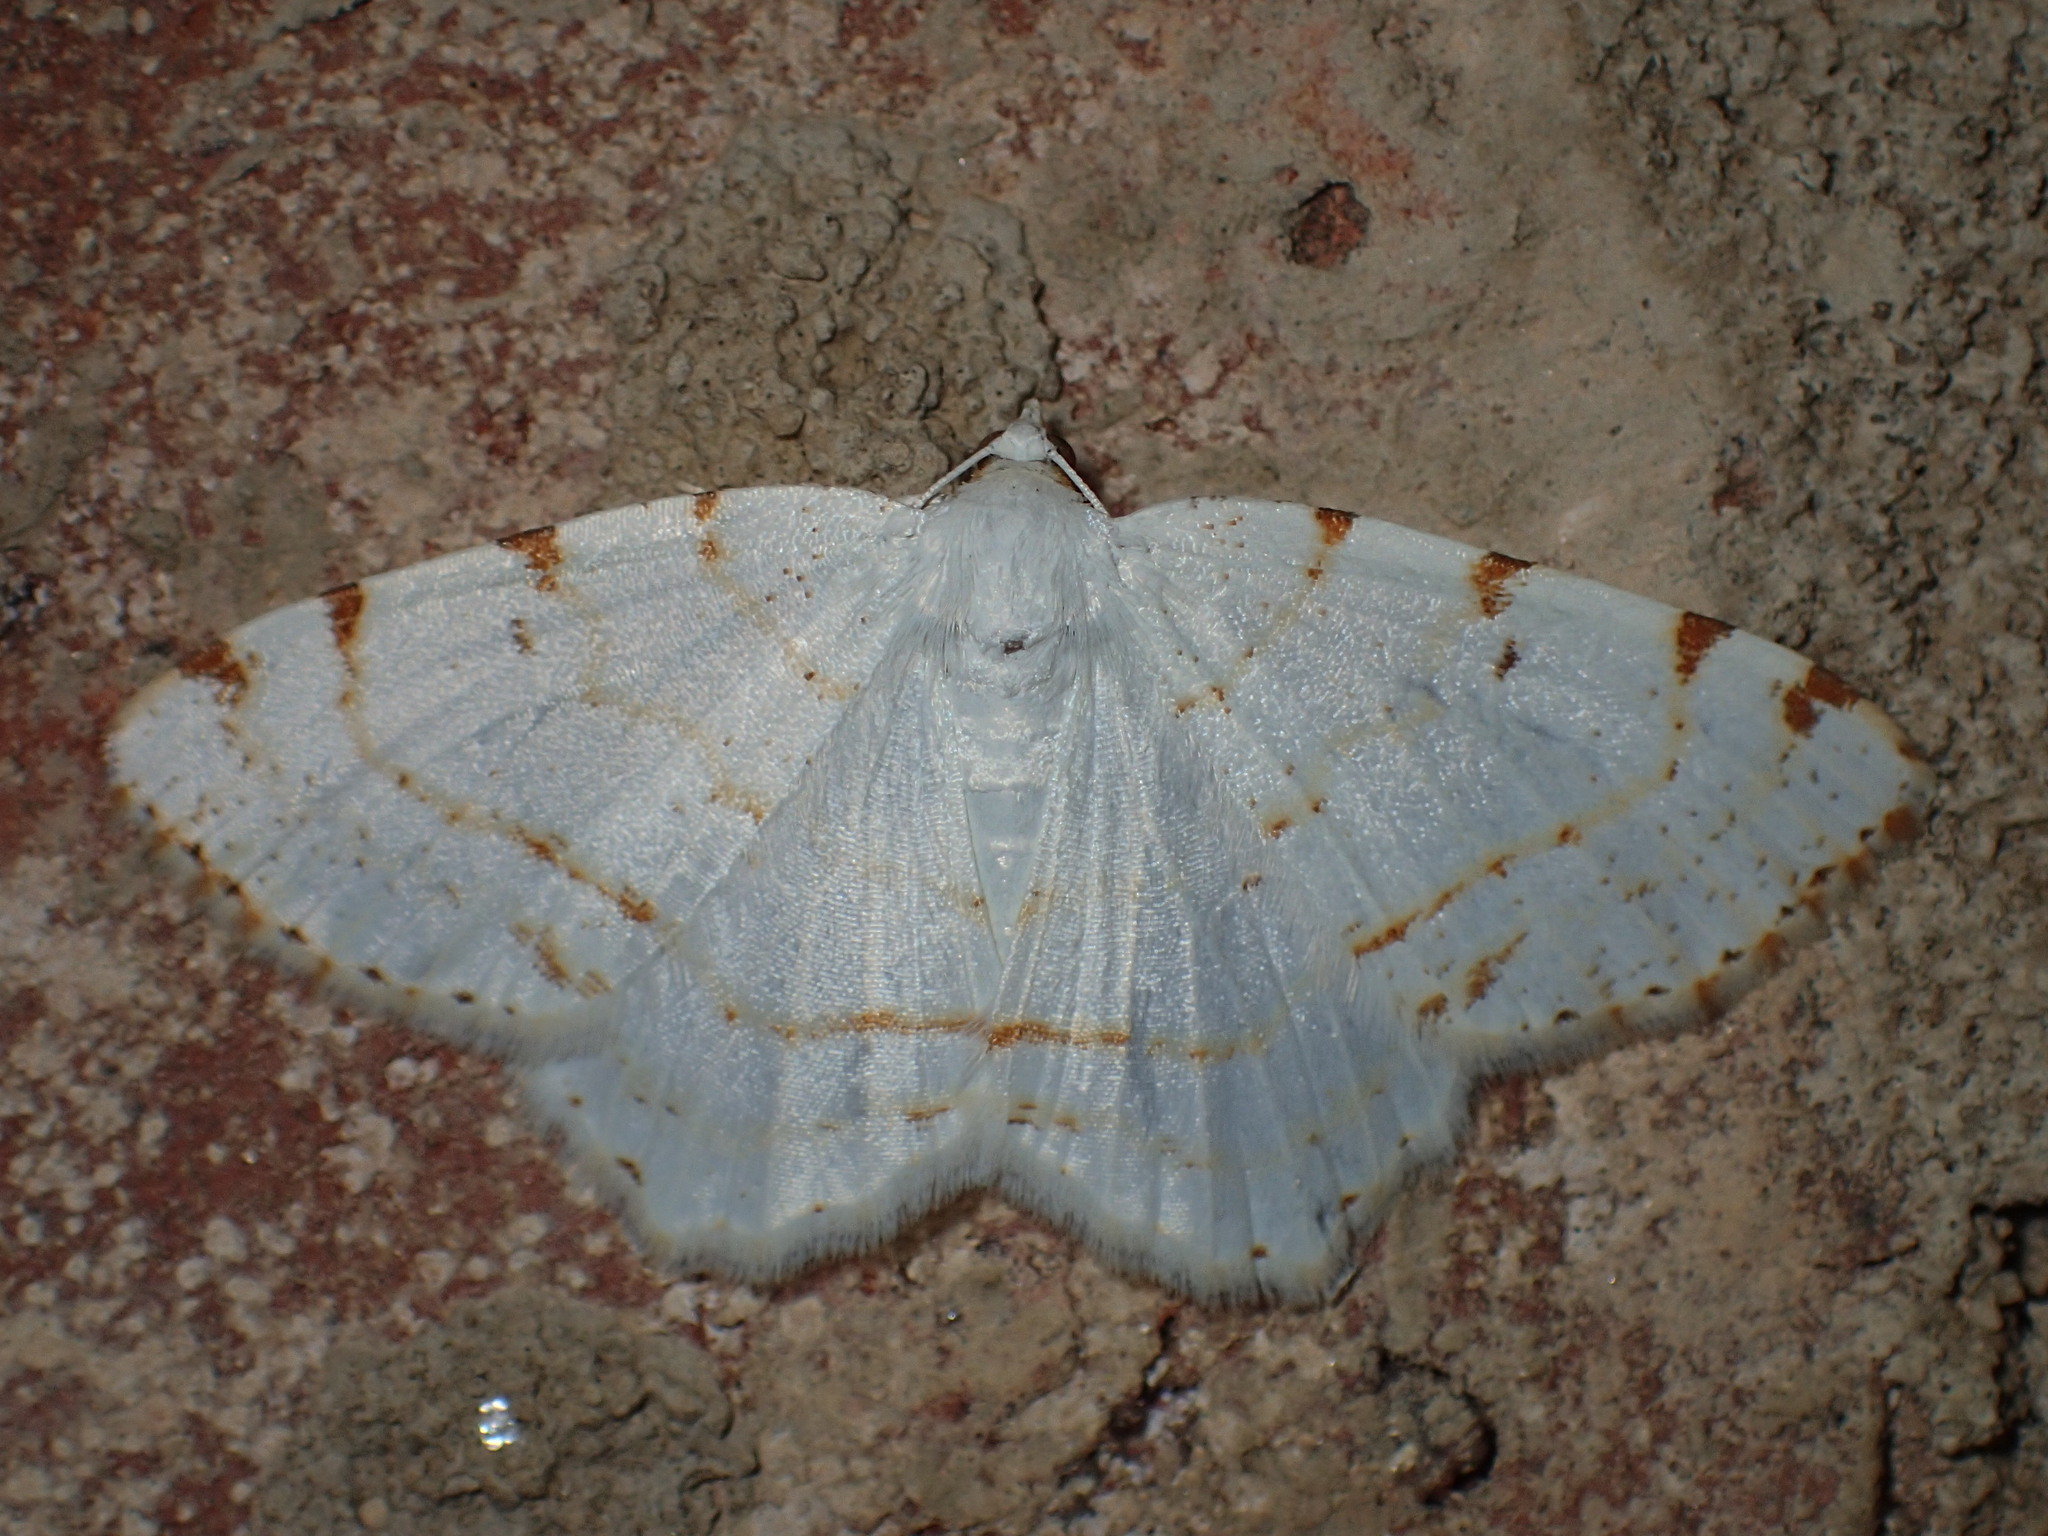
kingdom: Animalia
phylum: Arthropoda
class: Insecta
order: Lepidoptera
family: Geometridae
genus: Macaria
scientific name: Macaria pustularia
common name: Lesser maple spanworm moth
